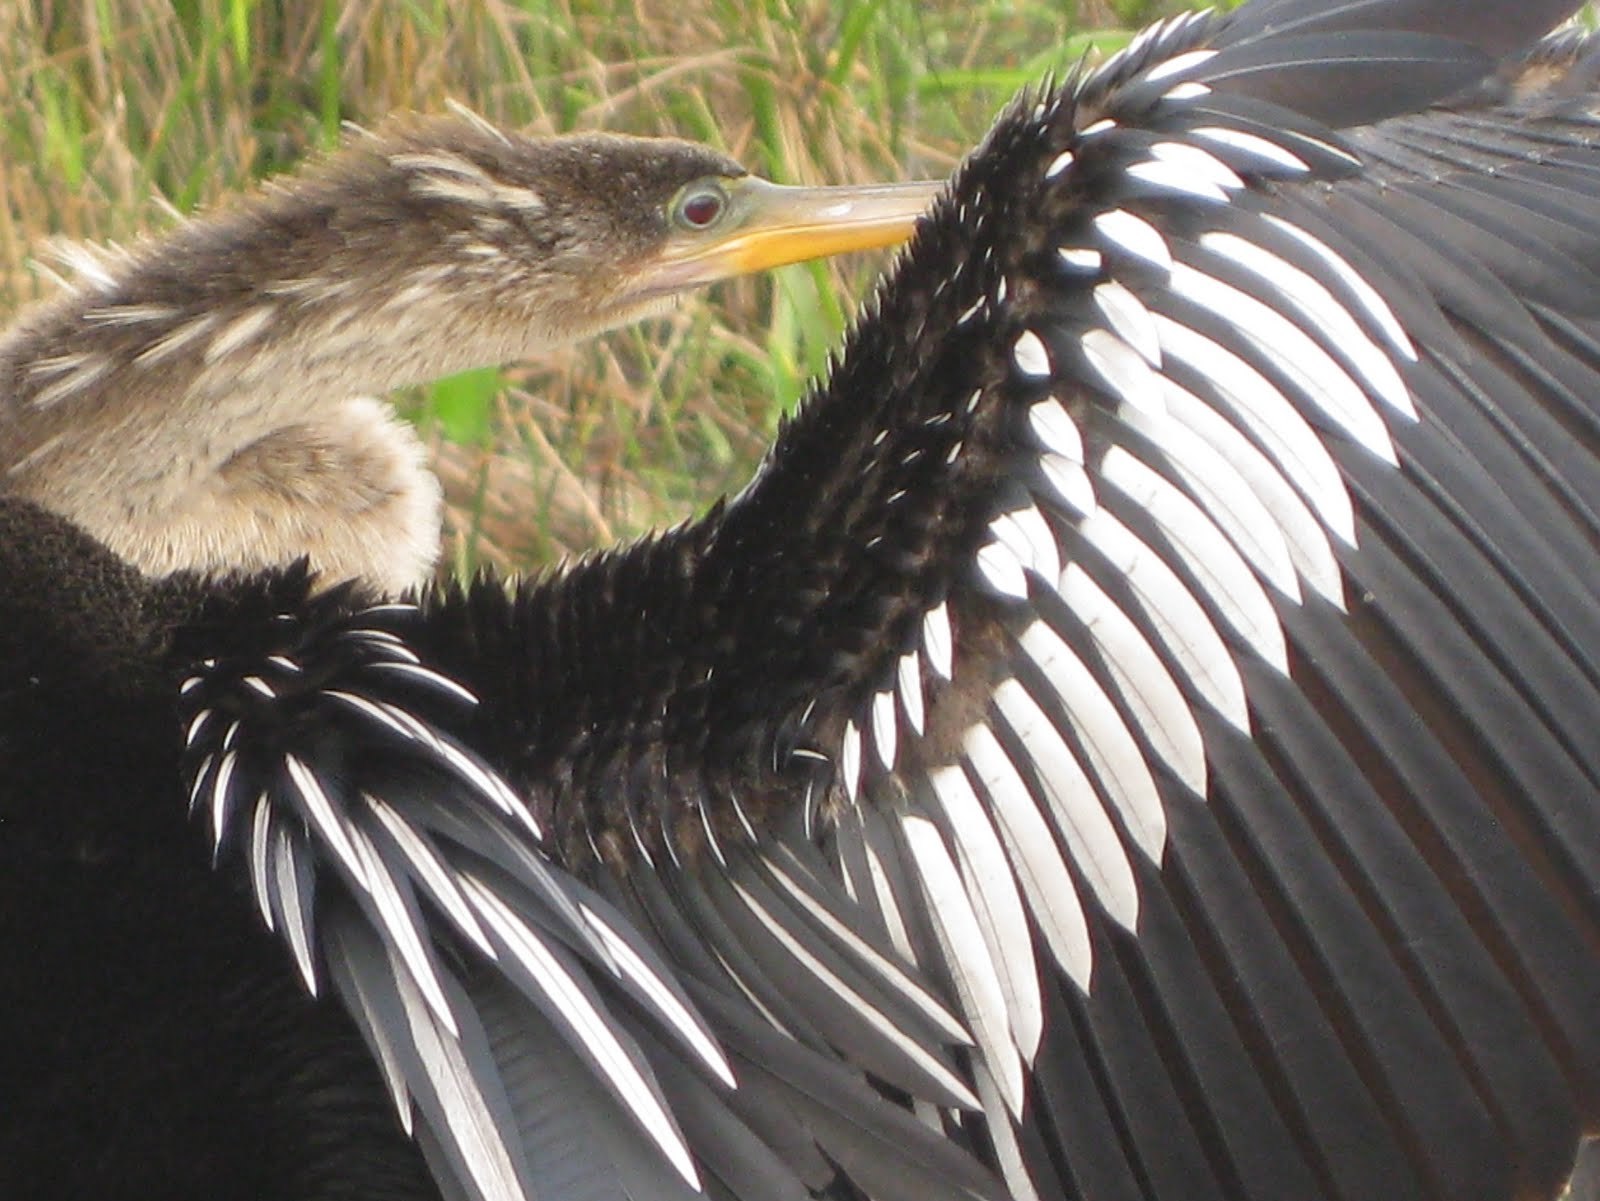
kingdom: Animalia
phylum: Chordata
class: Aves
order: Suliformes
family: Anhingidae
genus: Anhinga
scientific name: Anhinga anhinga
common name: Anhinga
